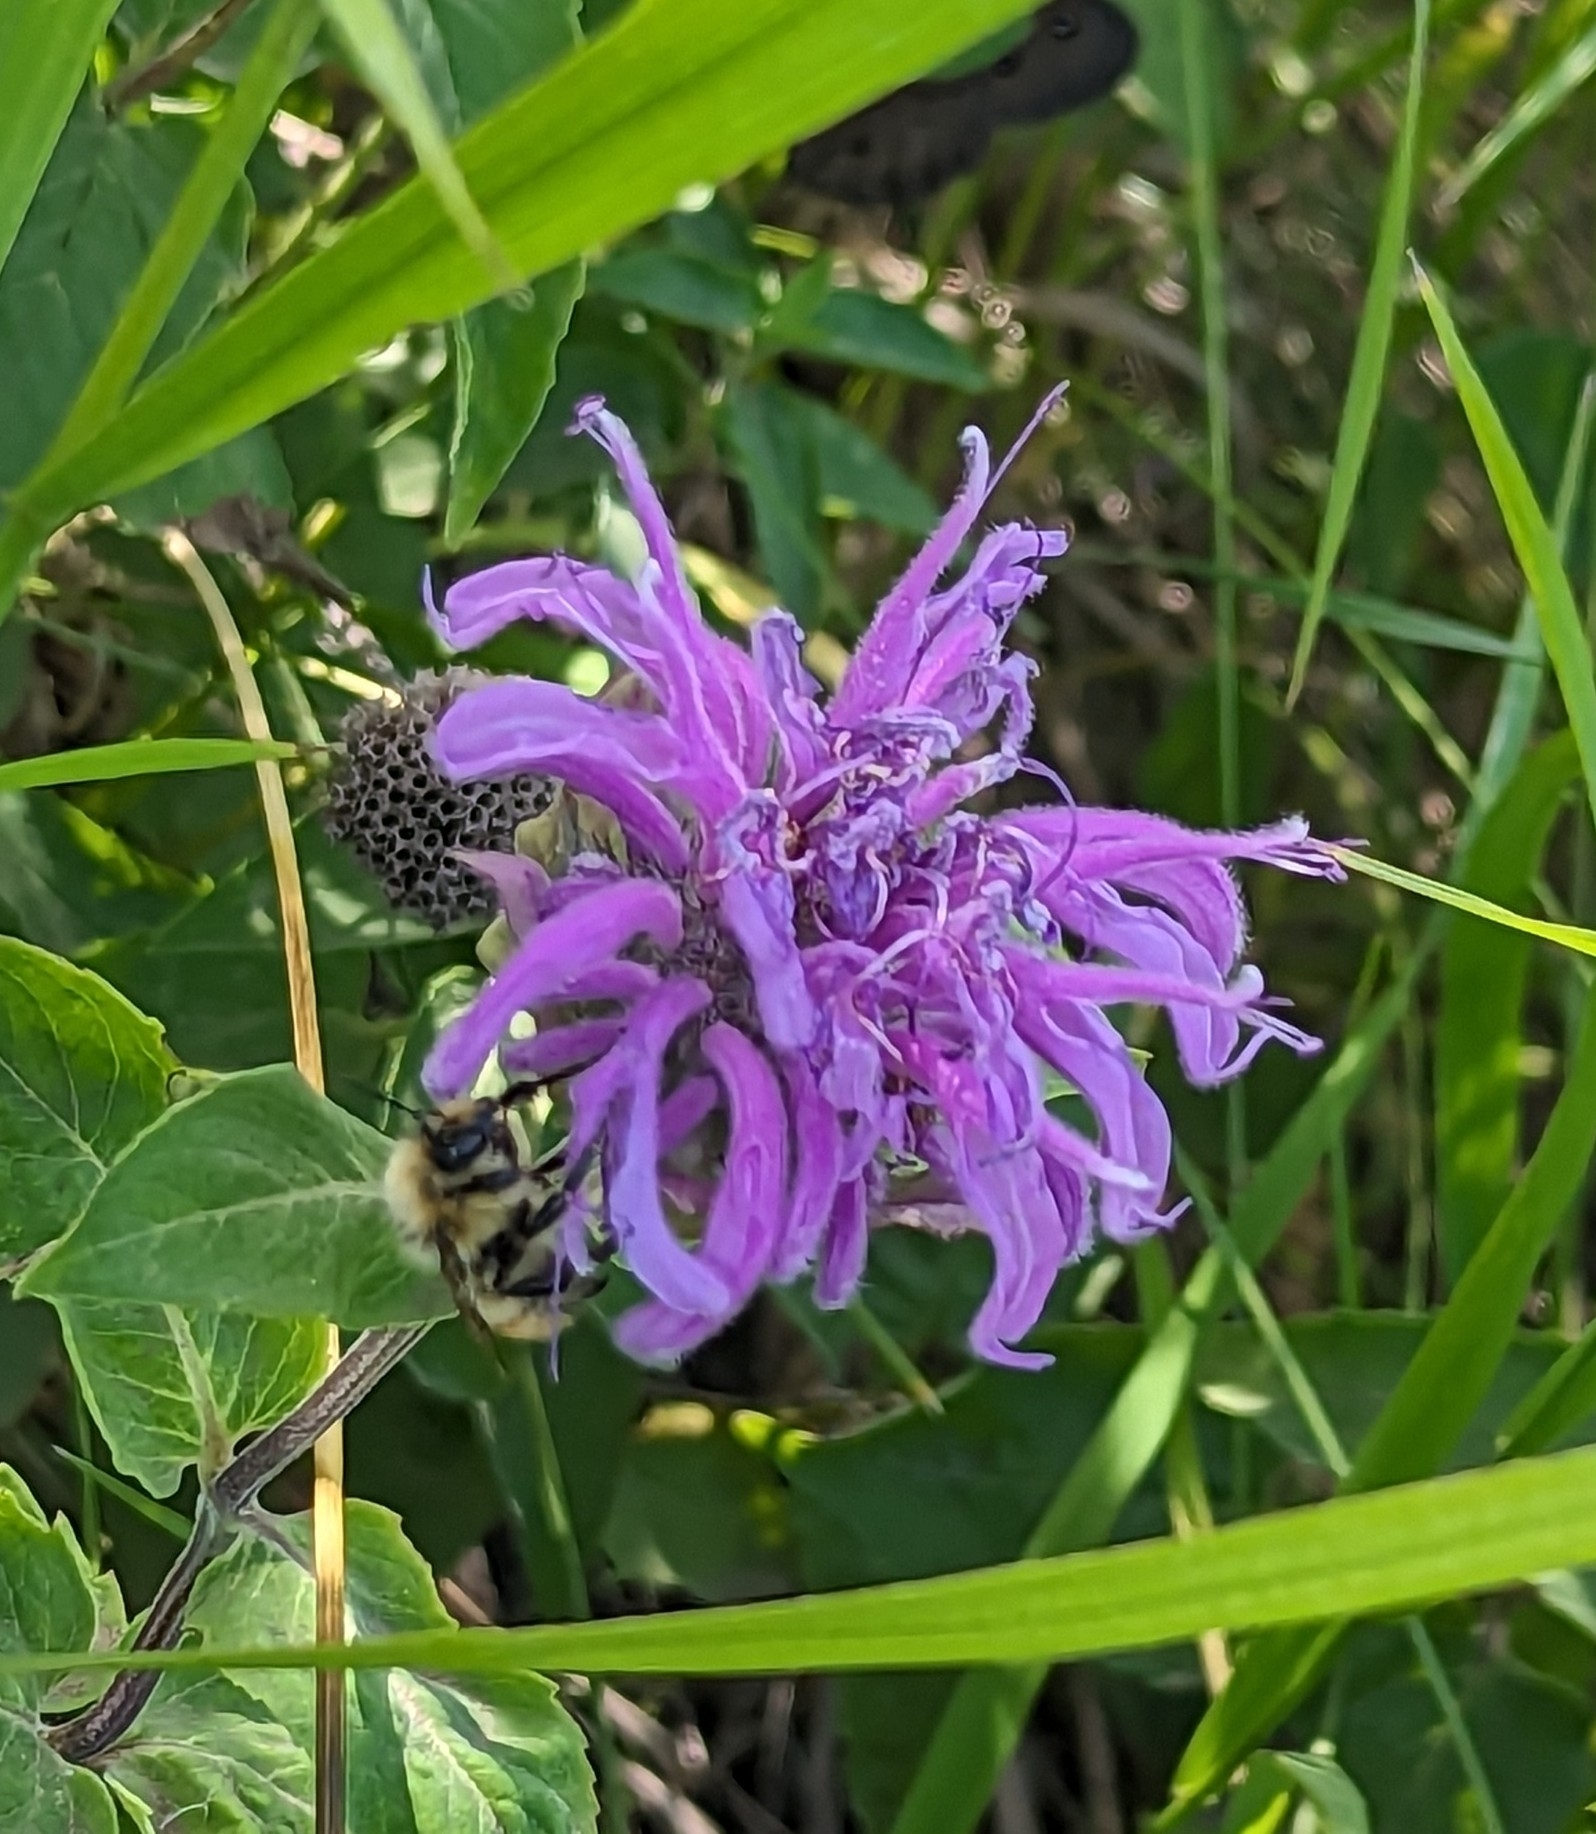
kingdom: Plantae
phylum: Tracheophyta
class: Magnoliopsida
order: Lamiales
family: Lamiaceae
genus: Monarda
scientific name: Monarda fistulosa
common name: Purple beebalm
